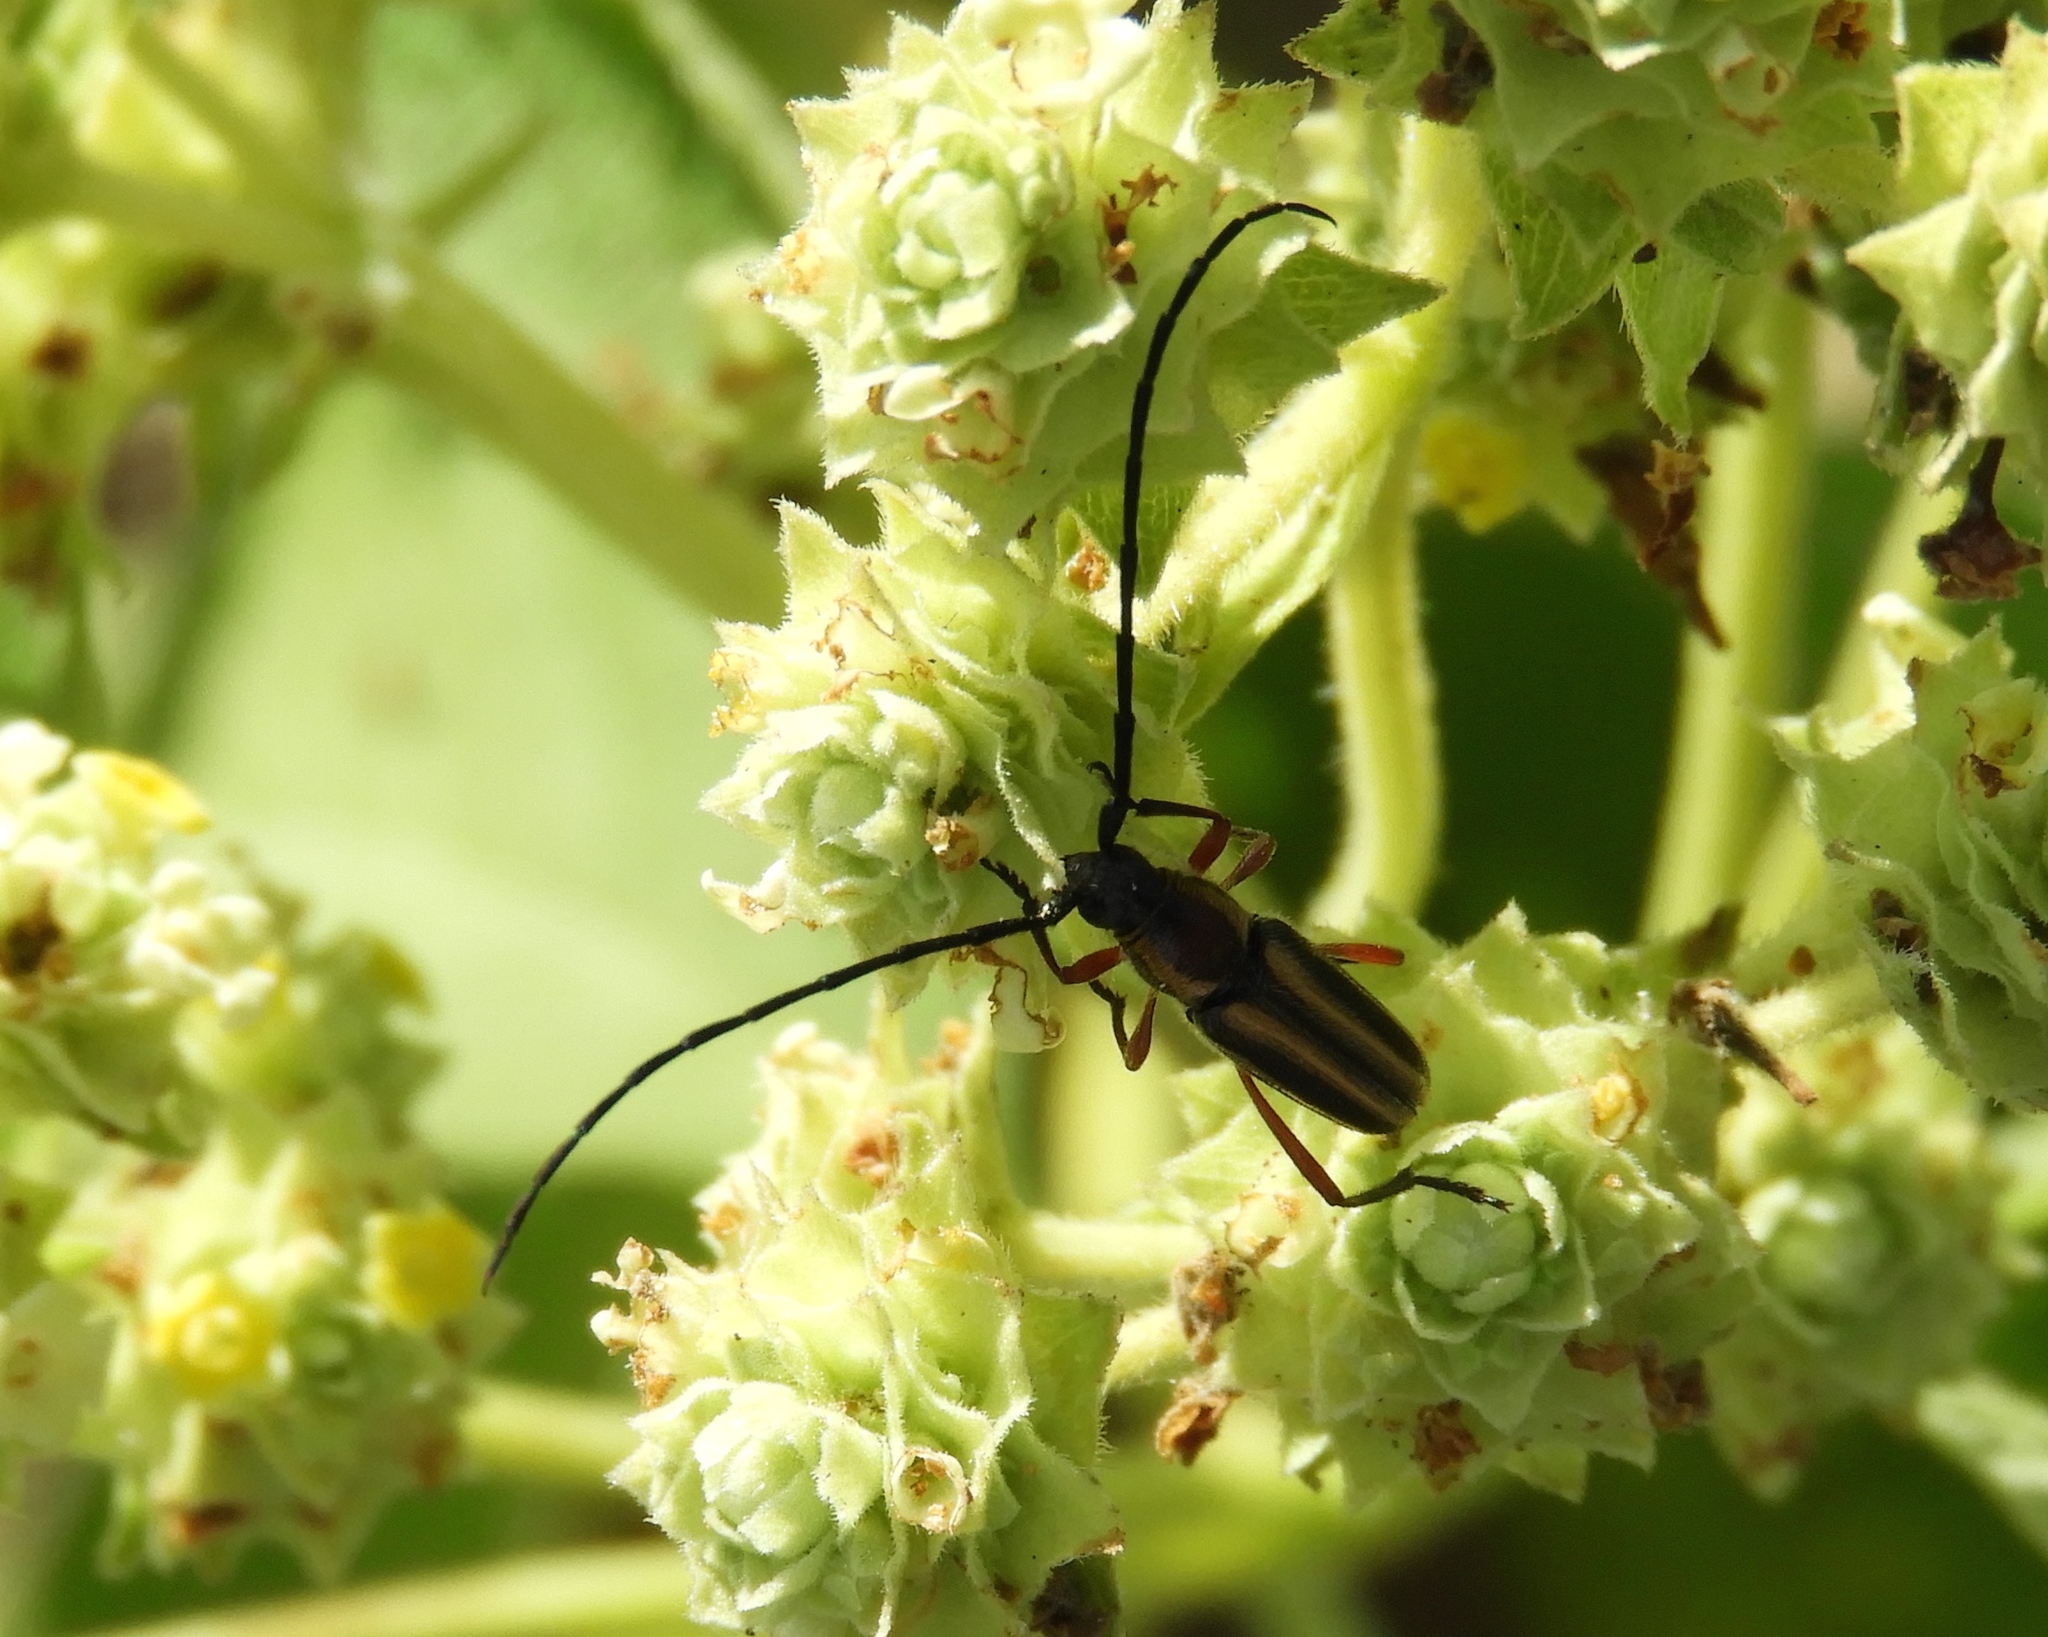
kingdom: Animalia
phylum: Arthropoda
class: Insecta
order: Coleoptera
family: Cerambycidae
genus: Sphaenothecus
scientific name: Sphaenothecus bilineatus
